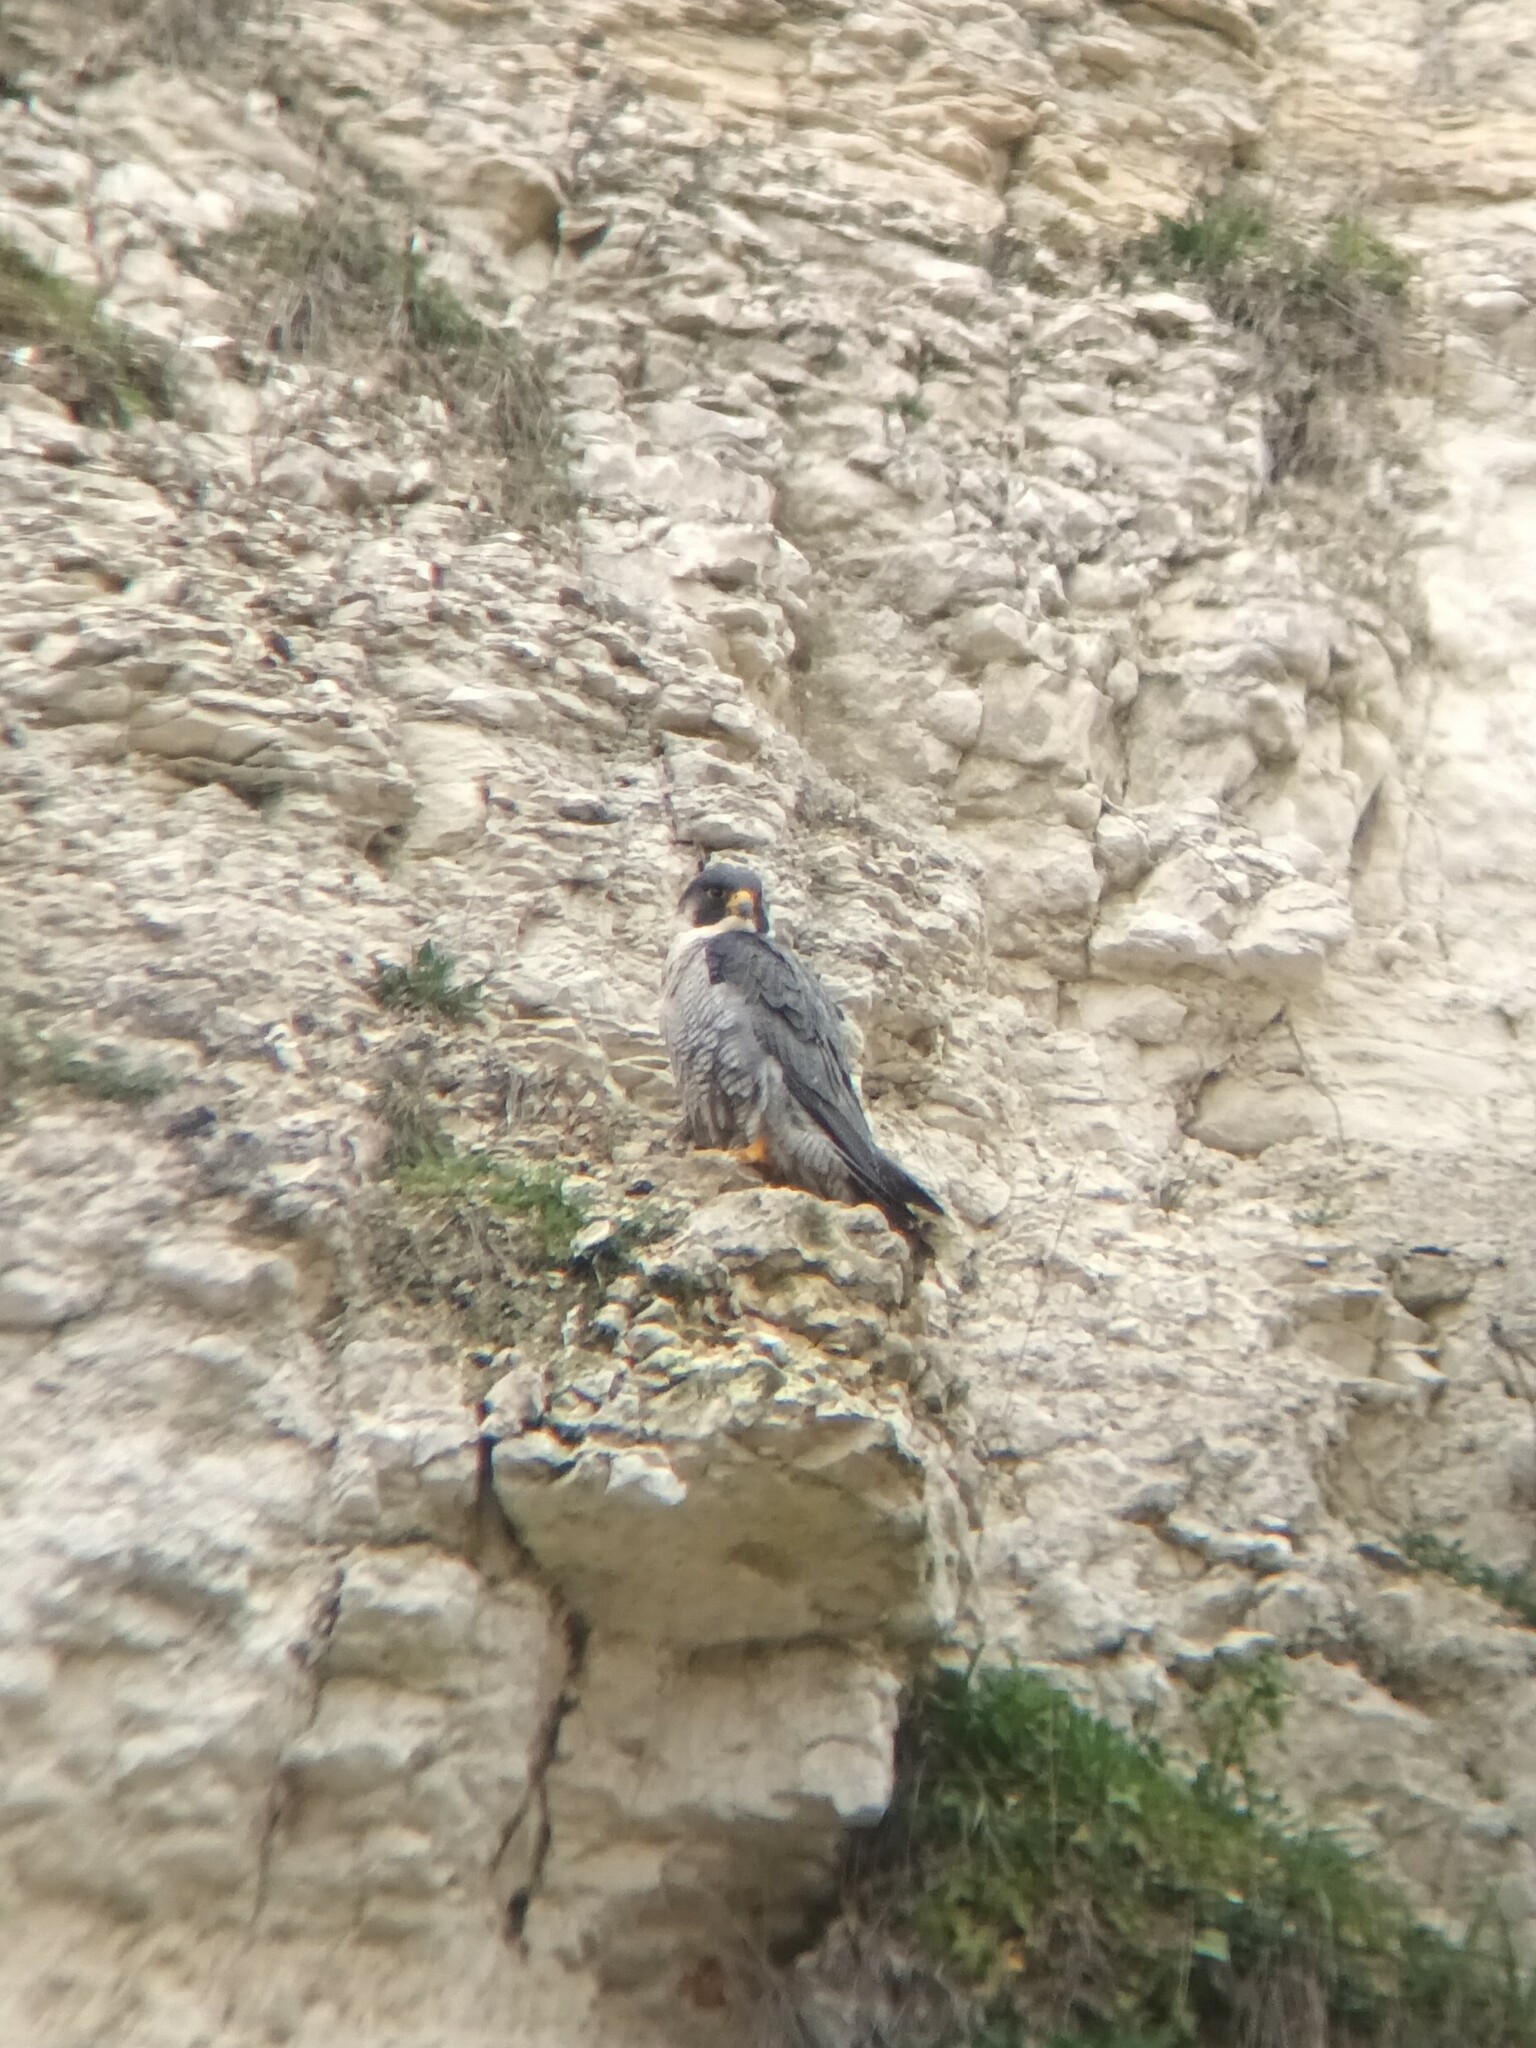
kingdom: Animalia
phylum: Chordata
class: Aves
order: Falconiformes
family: Falconidae
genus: Falco
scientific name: Falco peregrinus
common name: Peregrine falcon
